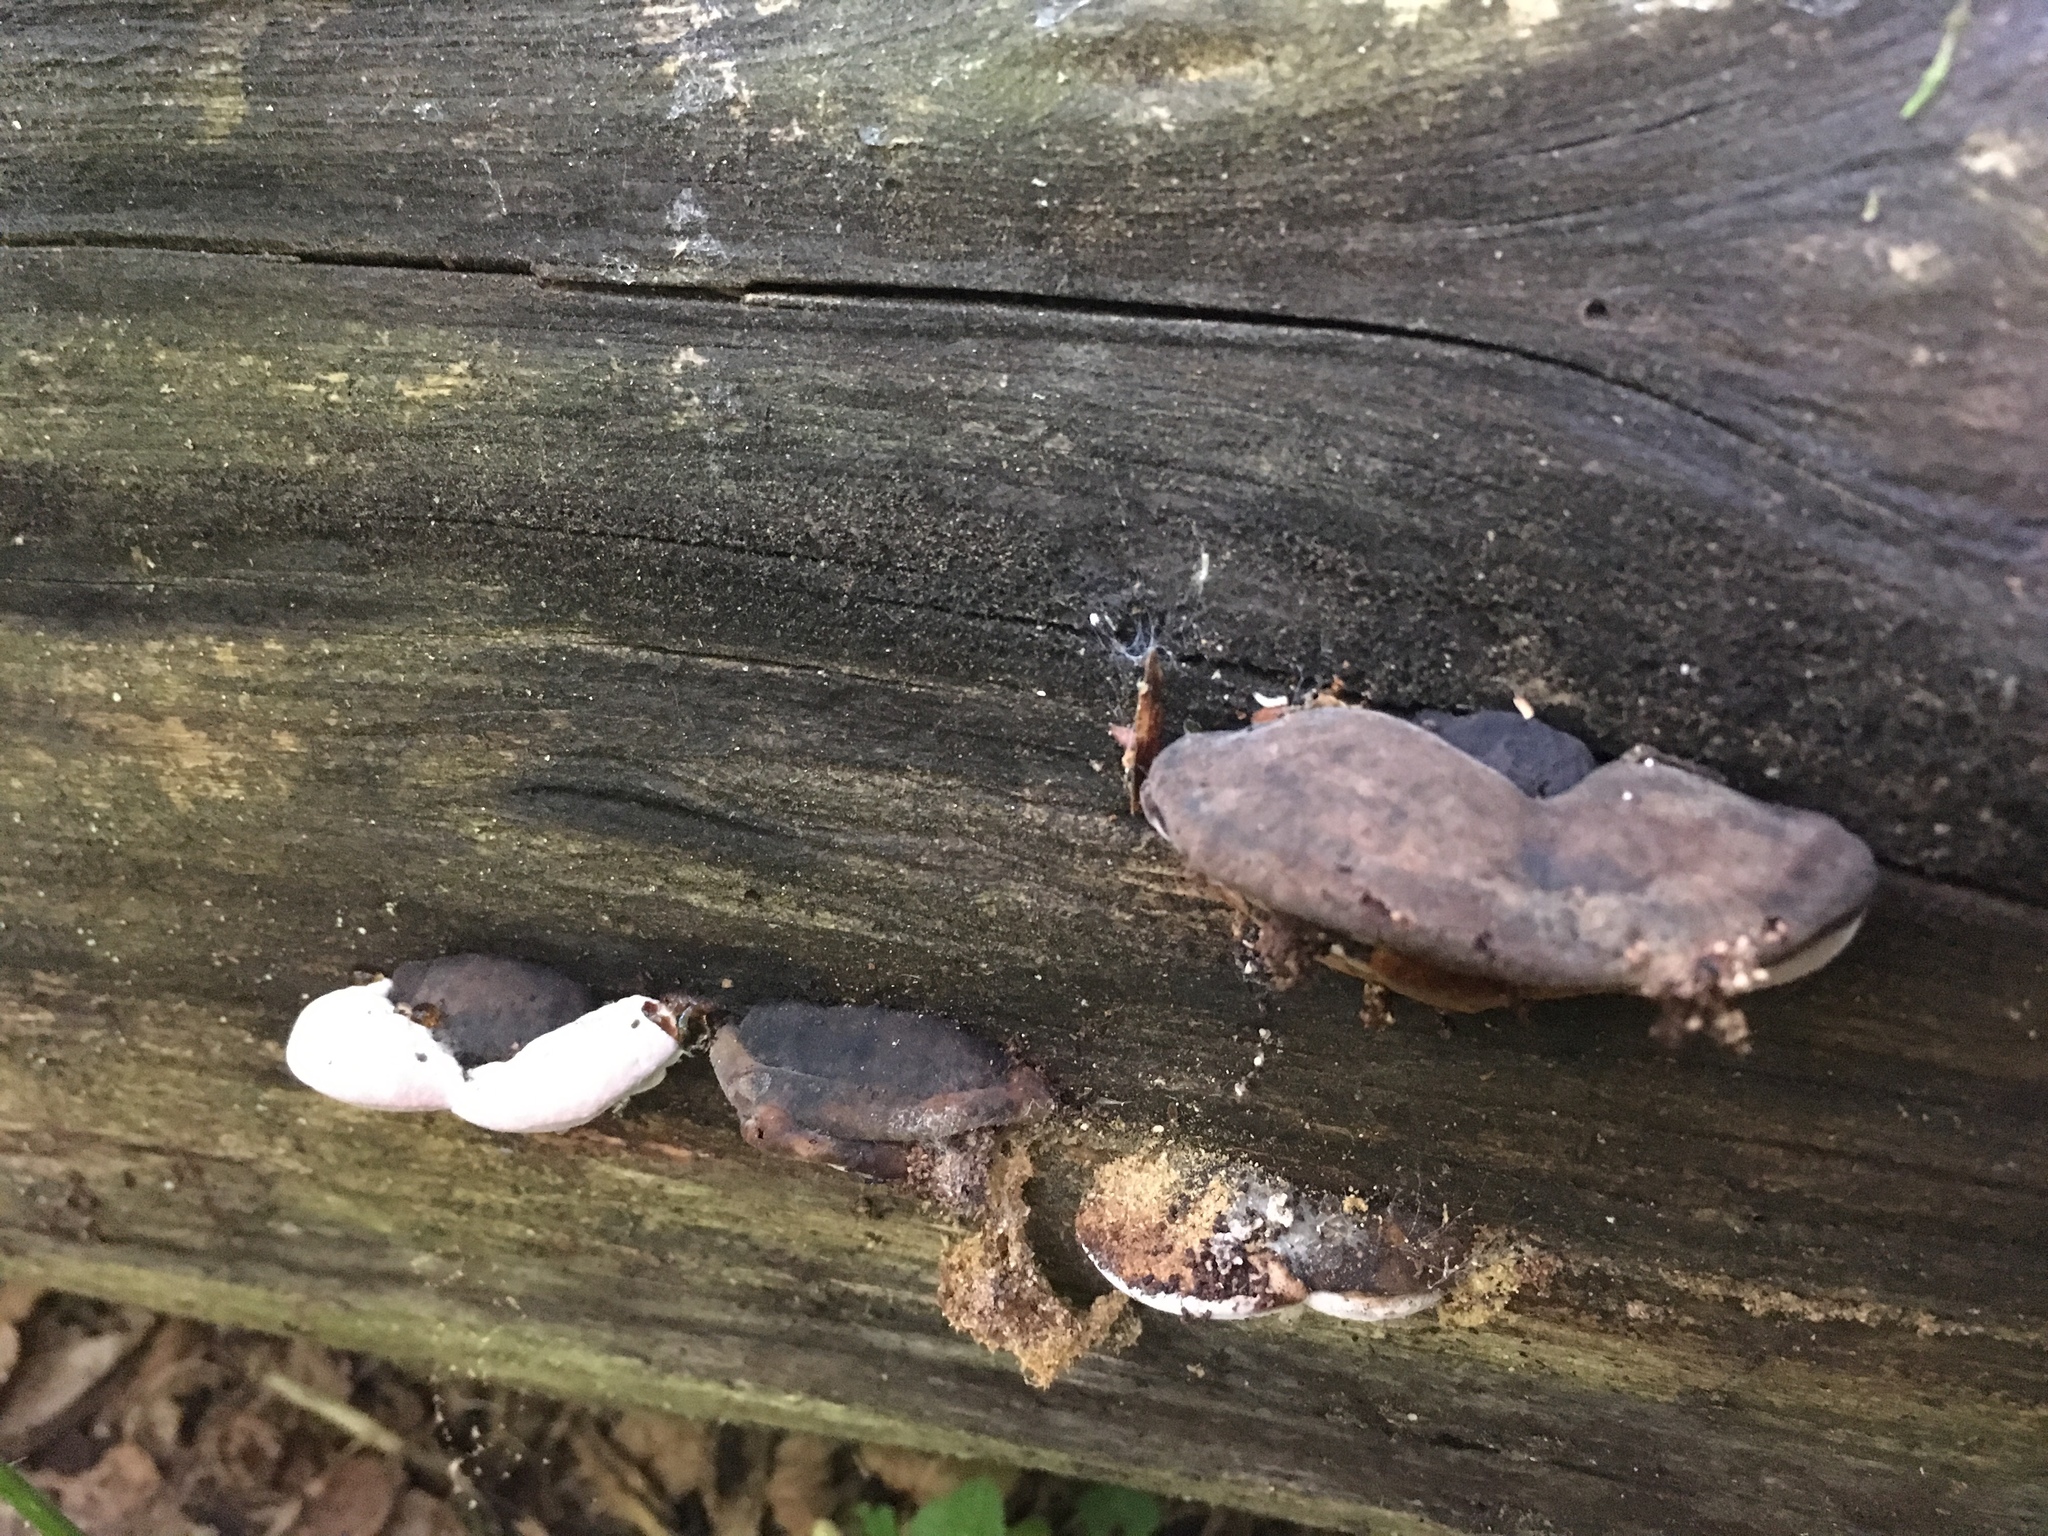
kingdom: Fungi
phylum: Basidiomycota
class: Agaricomycetes
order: Polyporales
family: Fomitopsidaceae
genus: Rhodofomes
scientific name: Rhodofomes roseus
